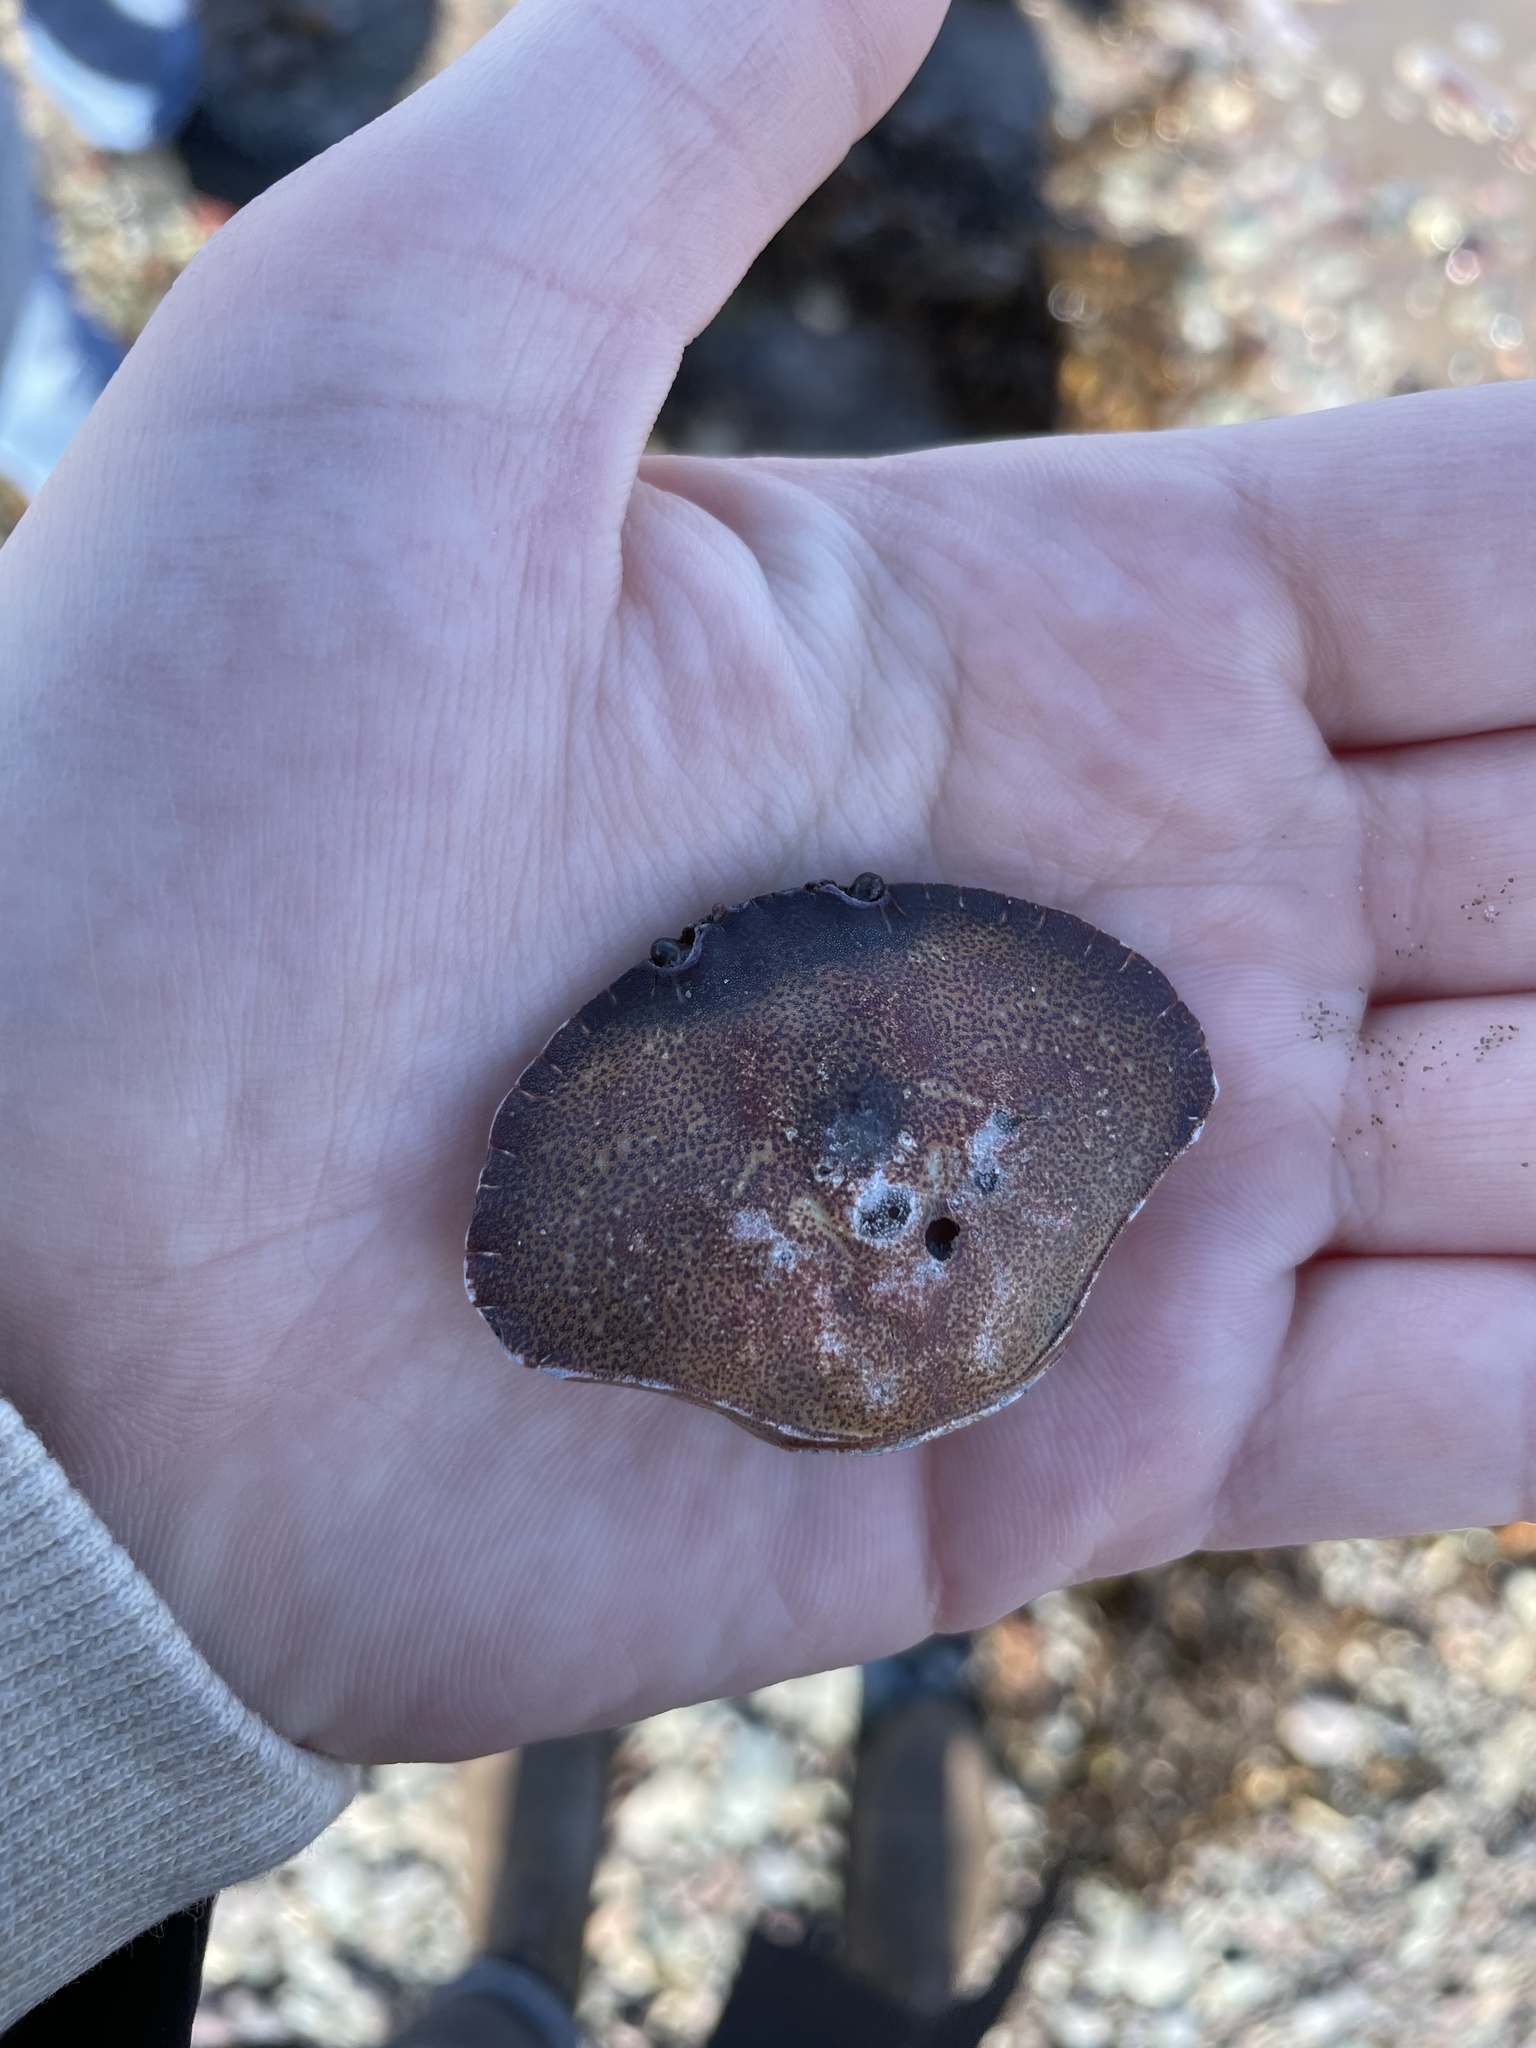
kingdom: Animalia
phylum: Arthropoda
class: Malacostraca
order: Decapoda
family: Cancridae
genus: Cancer
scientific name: Cancer irroratus
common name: Atlantic rock crab
